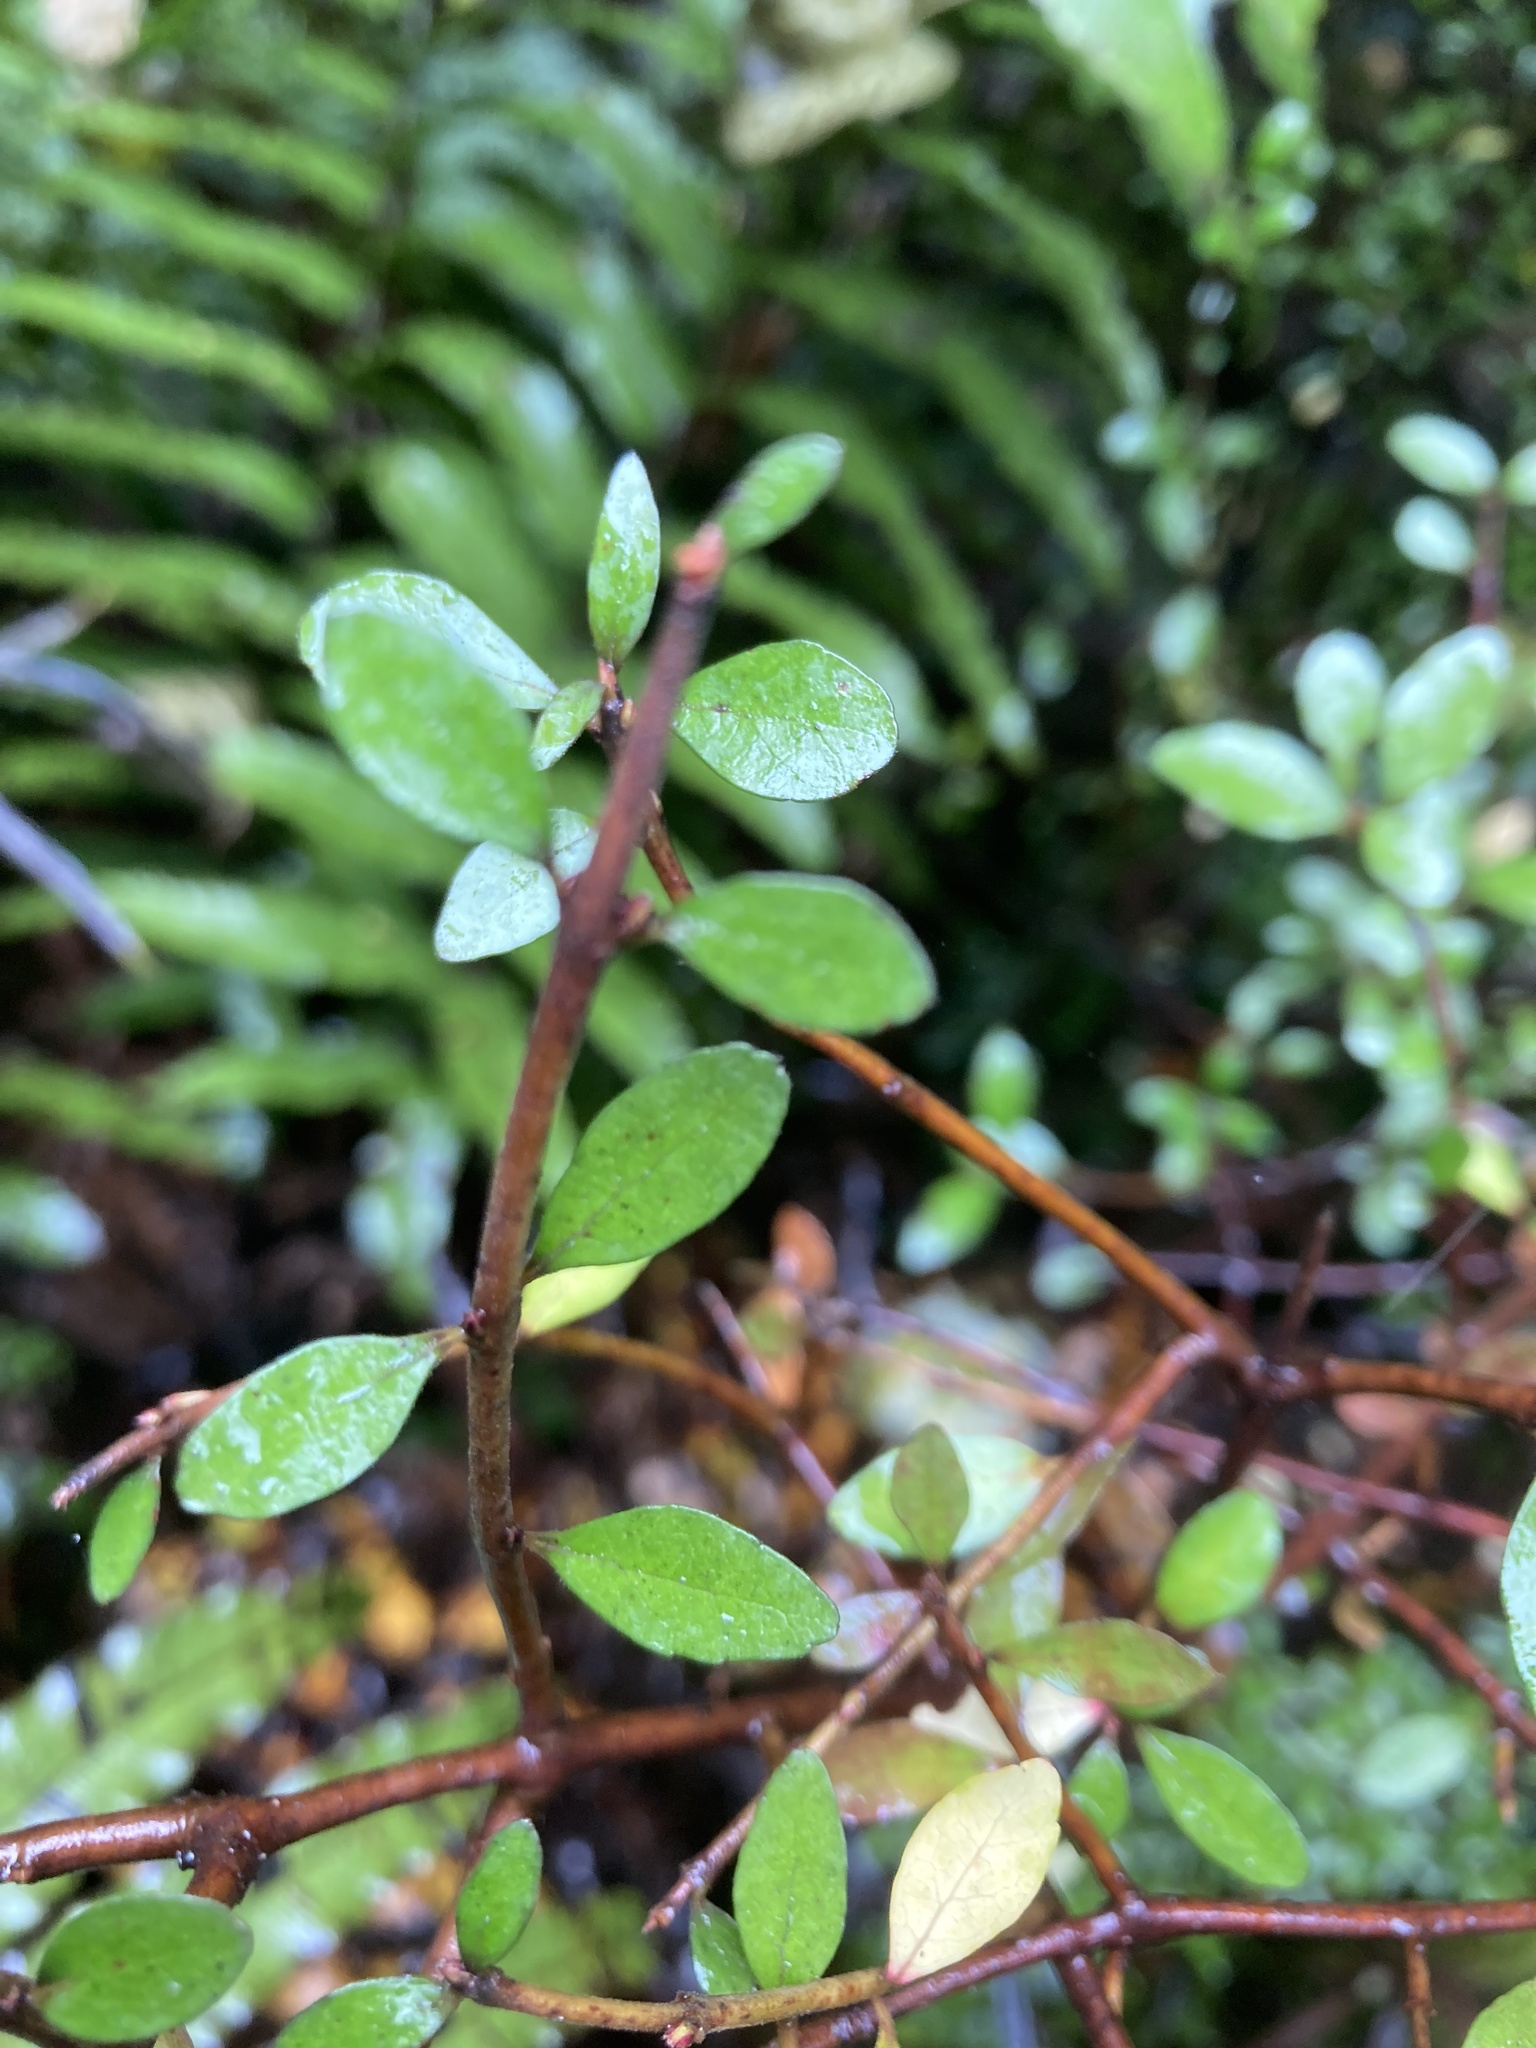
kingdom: Plantae
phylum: Tracheophyta
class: Magnoliopsida
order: Oxalidales
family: Elaeocarpaceae
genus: Aristotelia
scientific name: Aristotelia fruticosa
